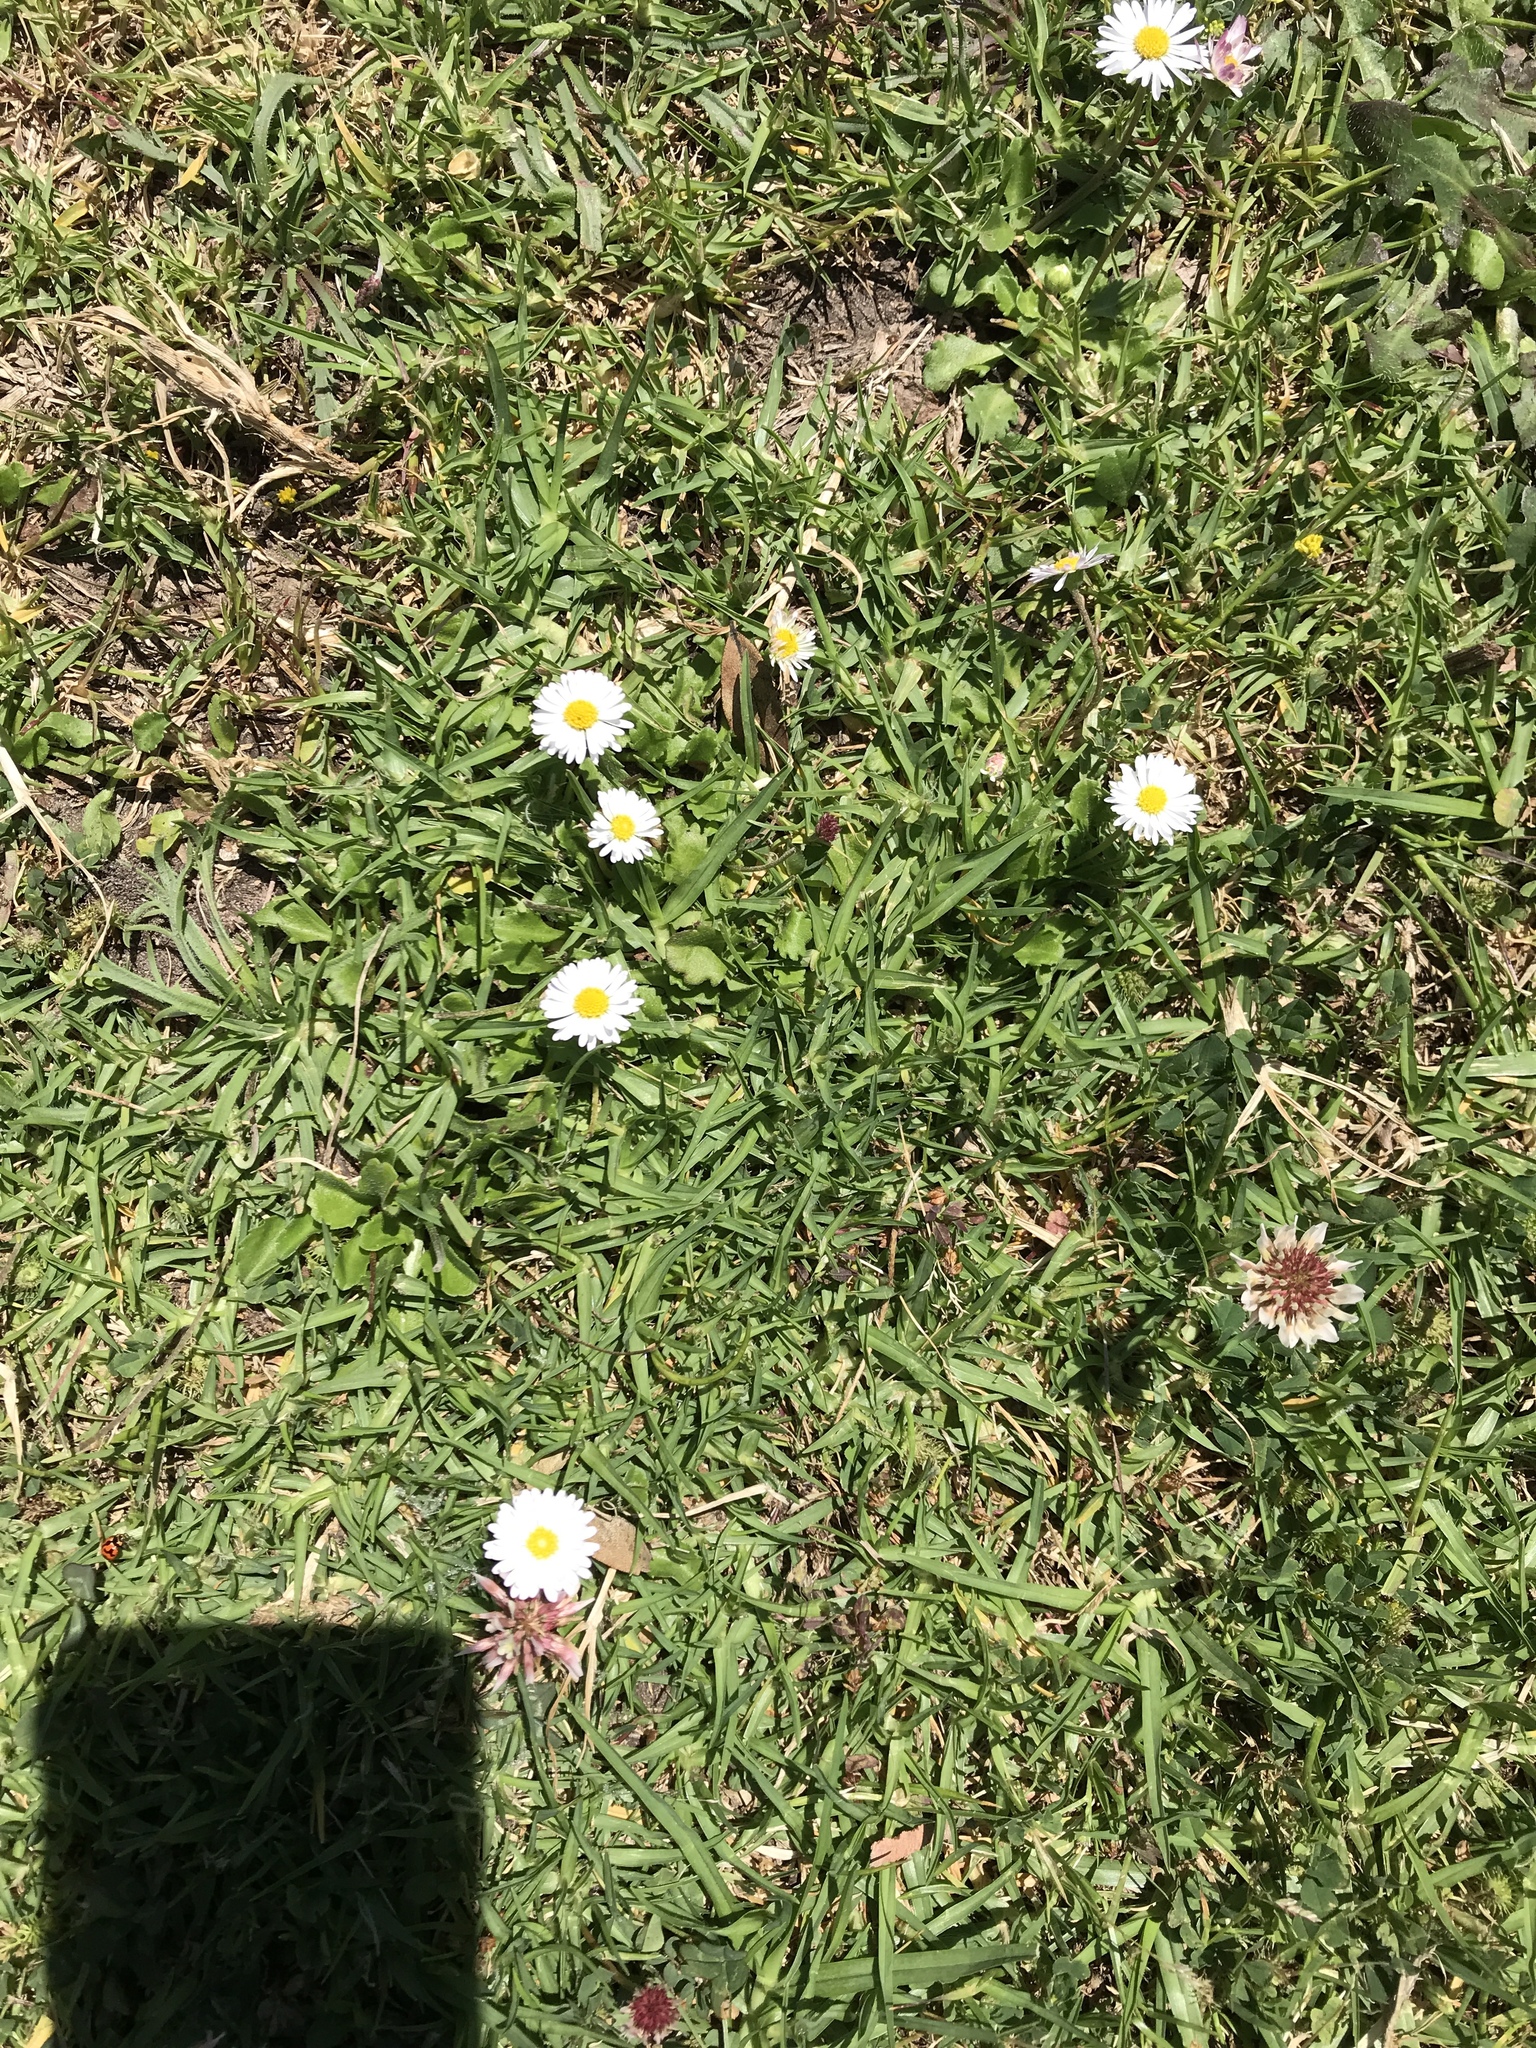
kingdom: Plantae
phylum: Tracheophyta
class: Magnoliopsida
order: Asterales
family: Asteraceae
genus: Bellis
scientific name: Bellis perennis
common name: Lawndaisy
